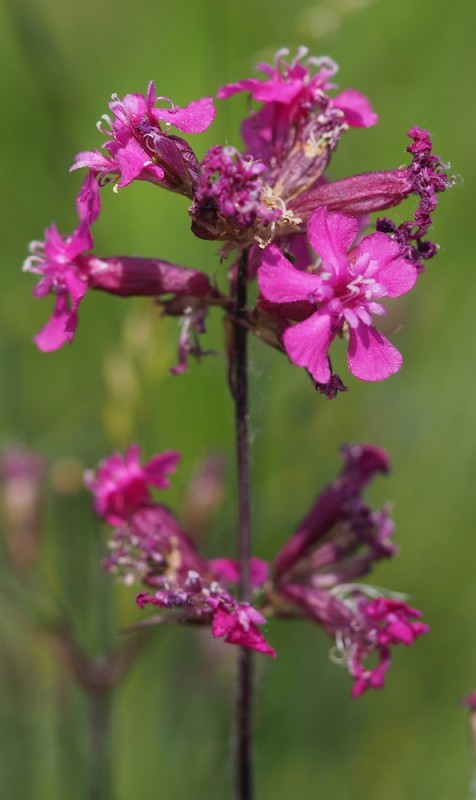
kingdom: Plantae
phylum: Tracheophyta
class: Magnoliopsida
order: Caryophyllales
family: Caryophyllaceae
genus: Viscaria
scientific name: Viscaria vulgaris
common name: Clammy campion
